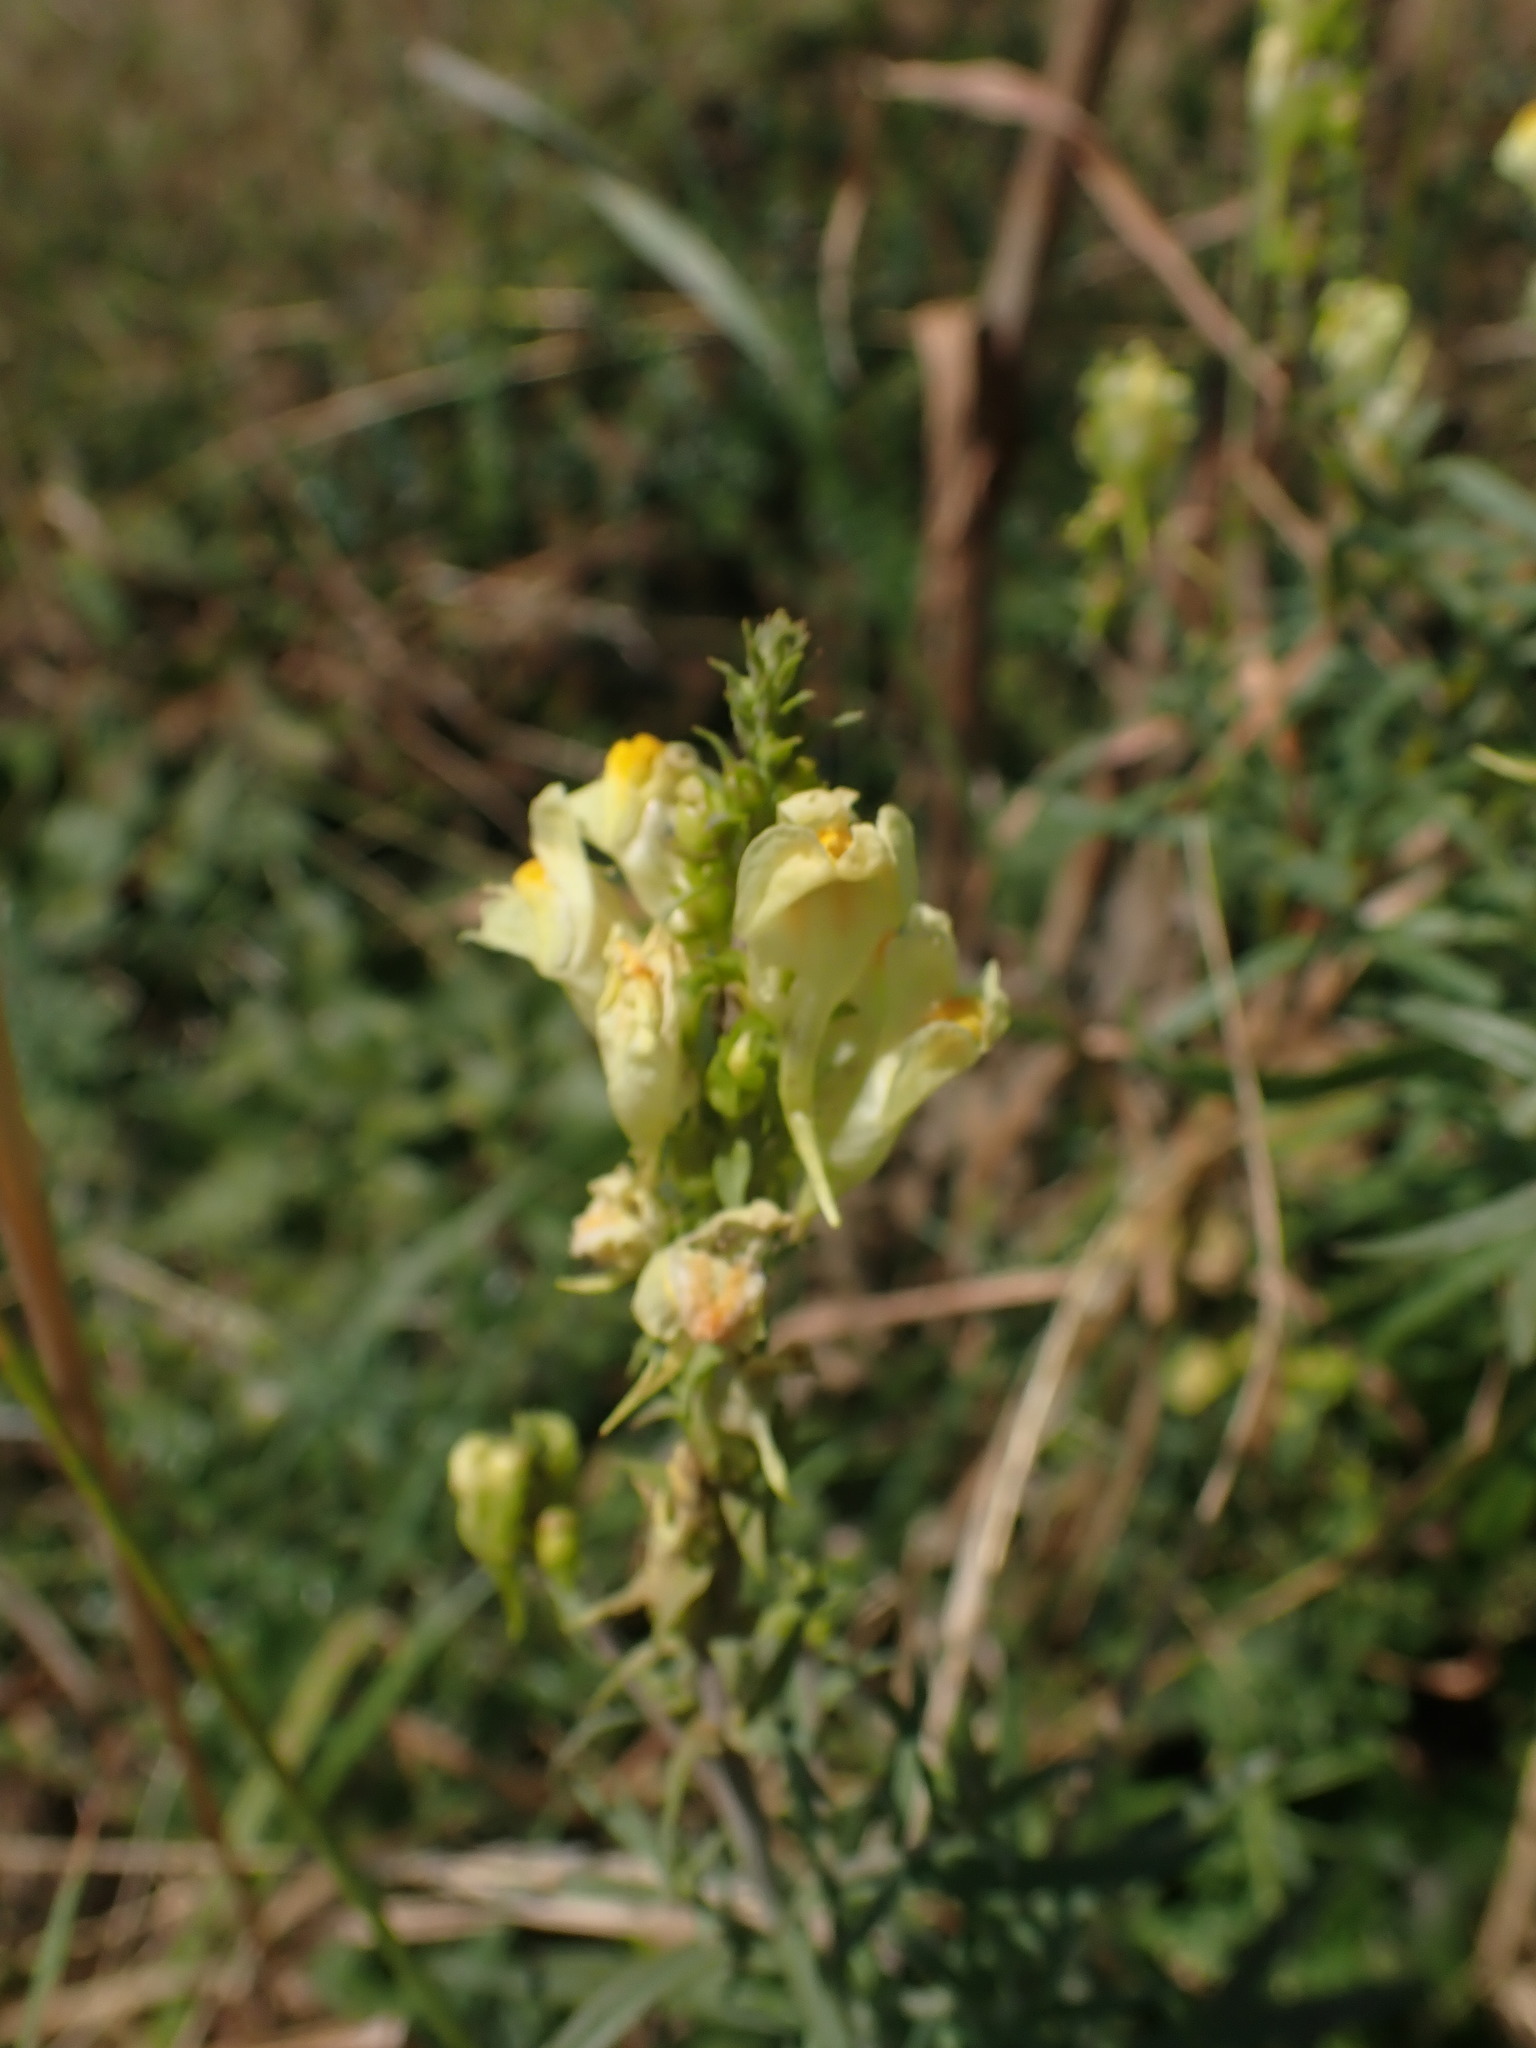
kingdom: Plantae
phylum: Tracheophyta
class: Magnoliopsida
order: Lamiales
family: Plantaginaceae
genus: Linaria
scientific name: Linaria vulgaris
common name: Butter and eggs
